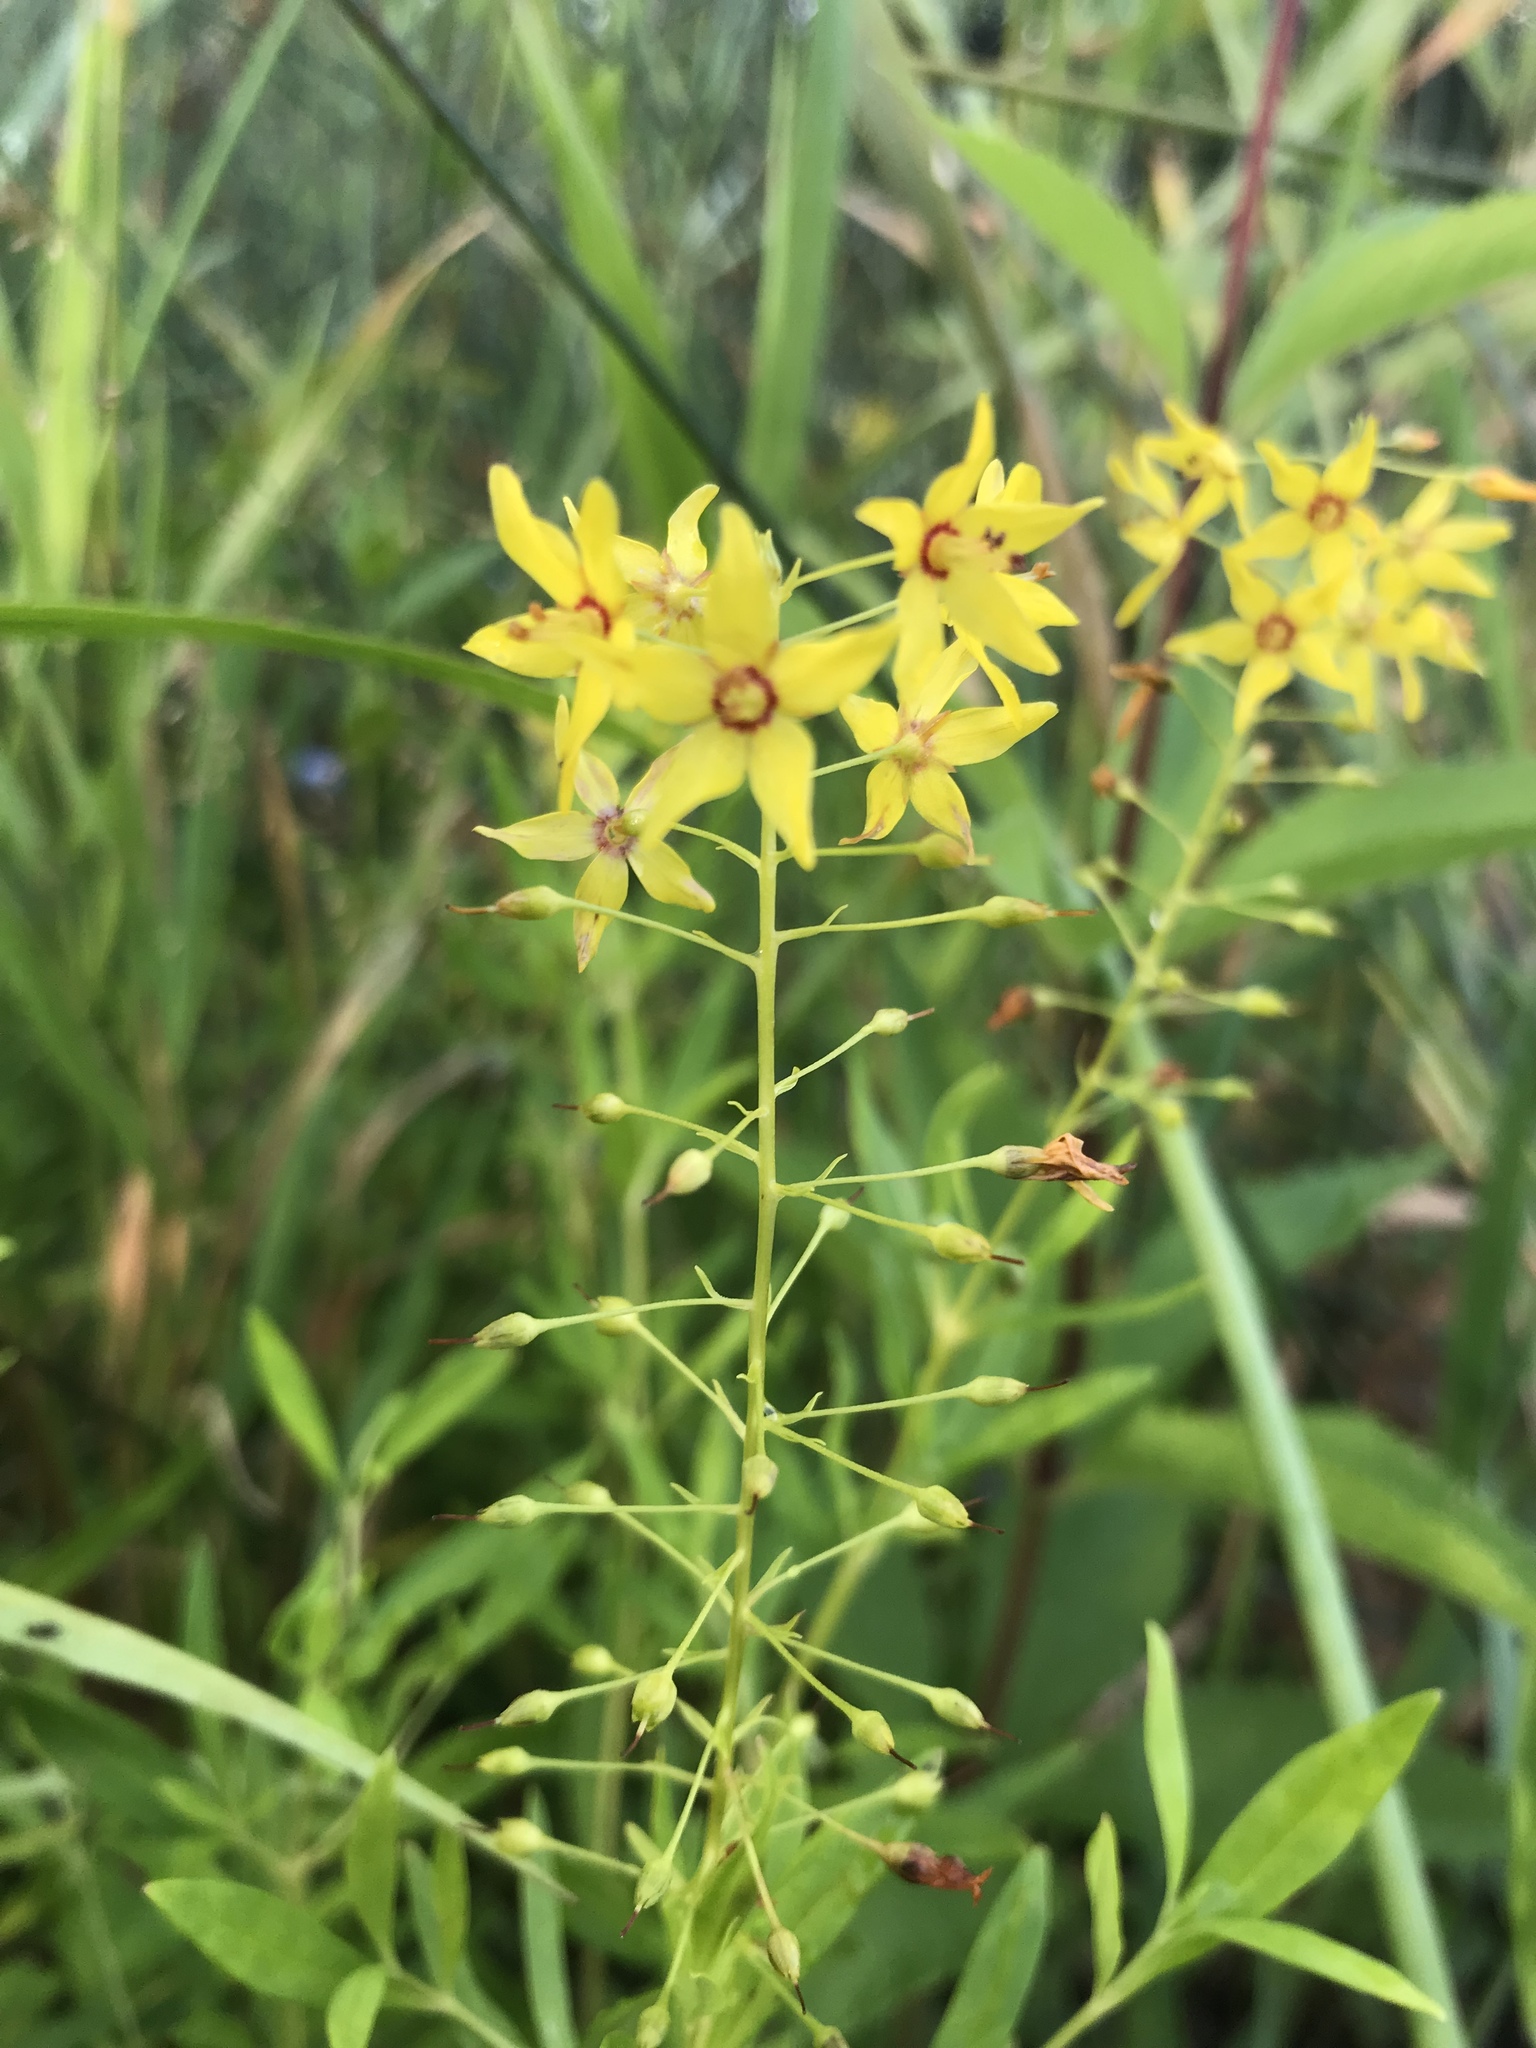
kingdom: Plantae
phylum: Tracheophyta
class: Magnoliopsida
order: Ericales
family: Primulaceae
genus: Lysimachia
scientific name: Lysimachia terrestris
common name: Lake loosestrife
